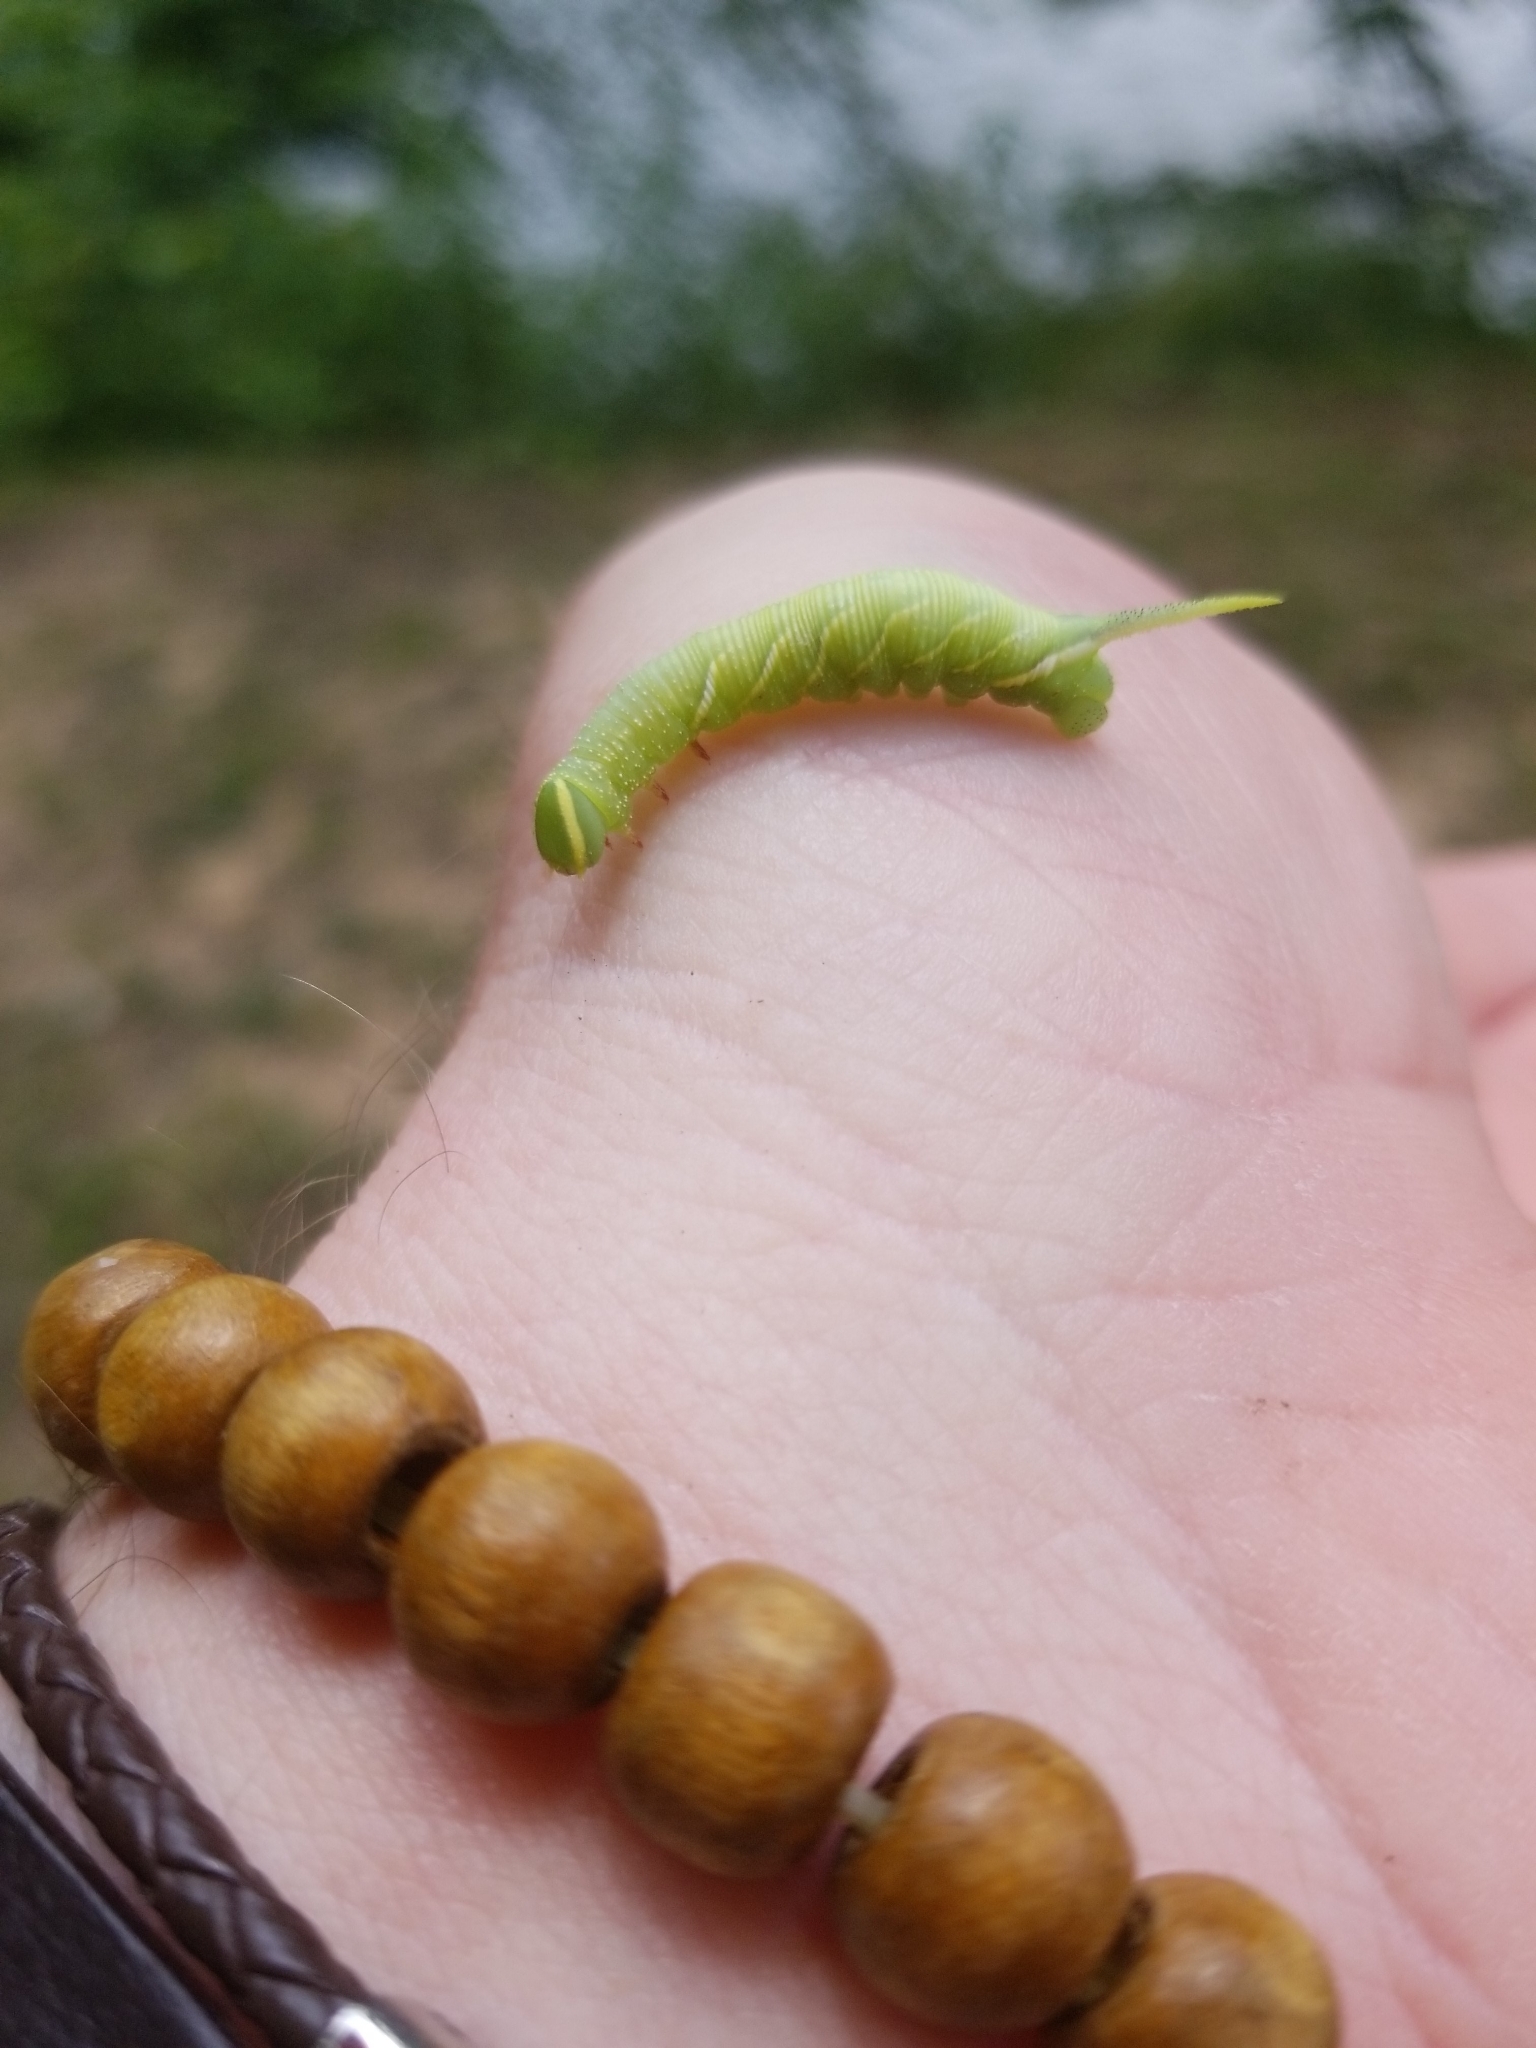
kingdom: Animalia
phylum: Arthropoda
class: Insecta
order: Lepidoptera
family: Sphingidae
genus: Ceratomia
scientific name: Ceratomia undulosa
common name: Waved sphinx
